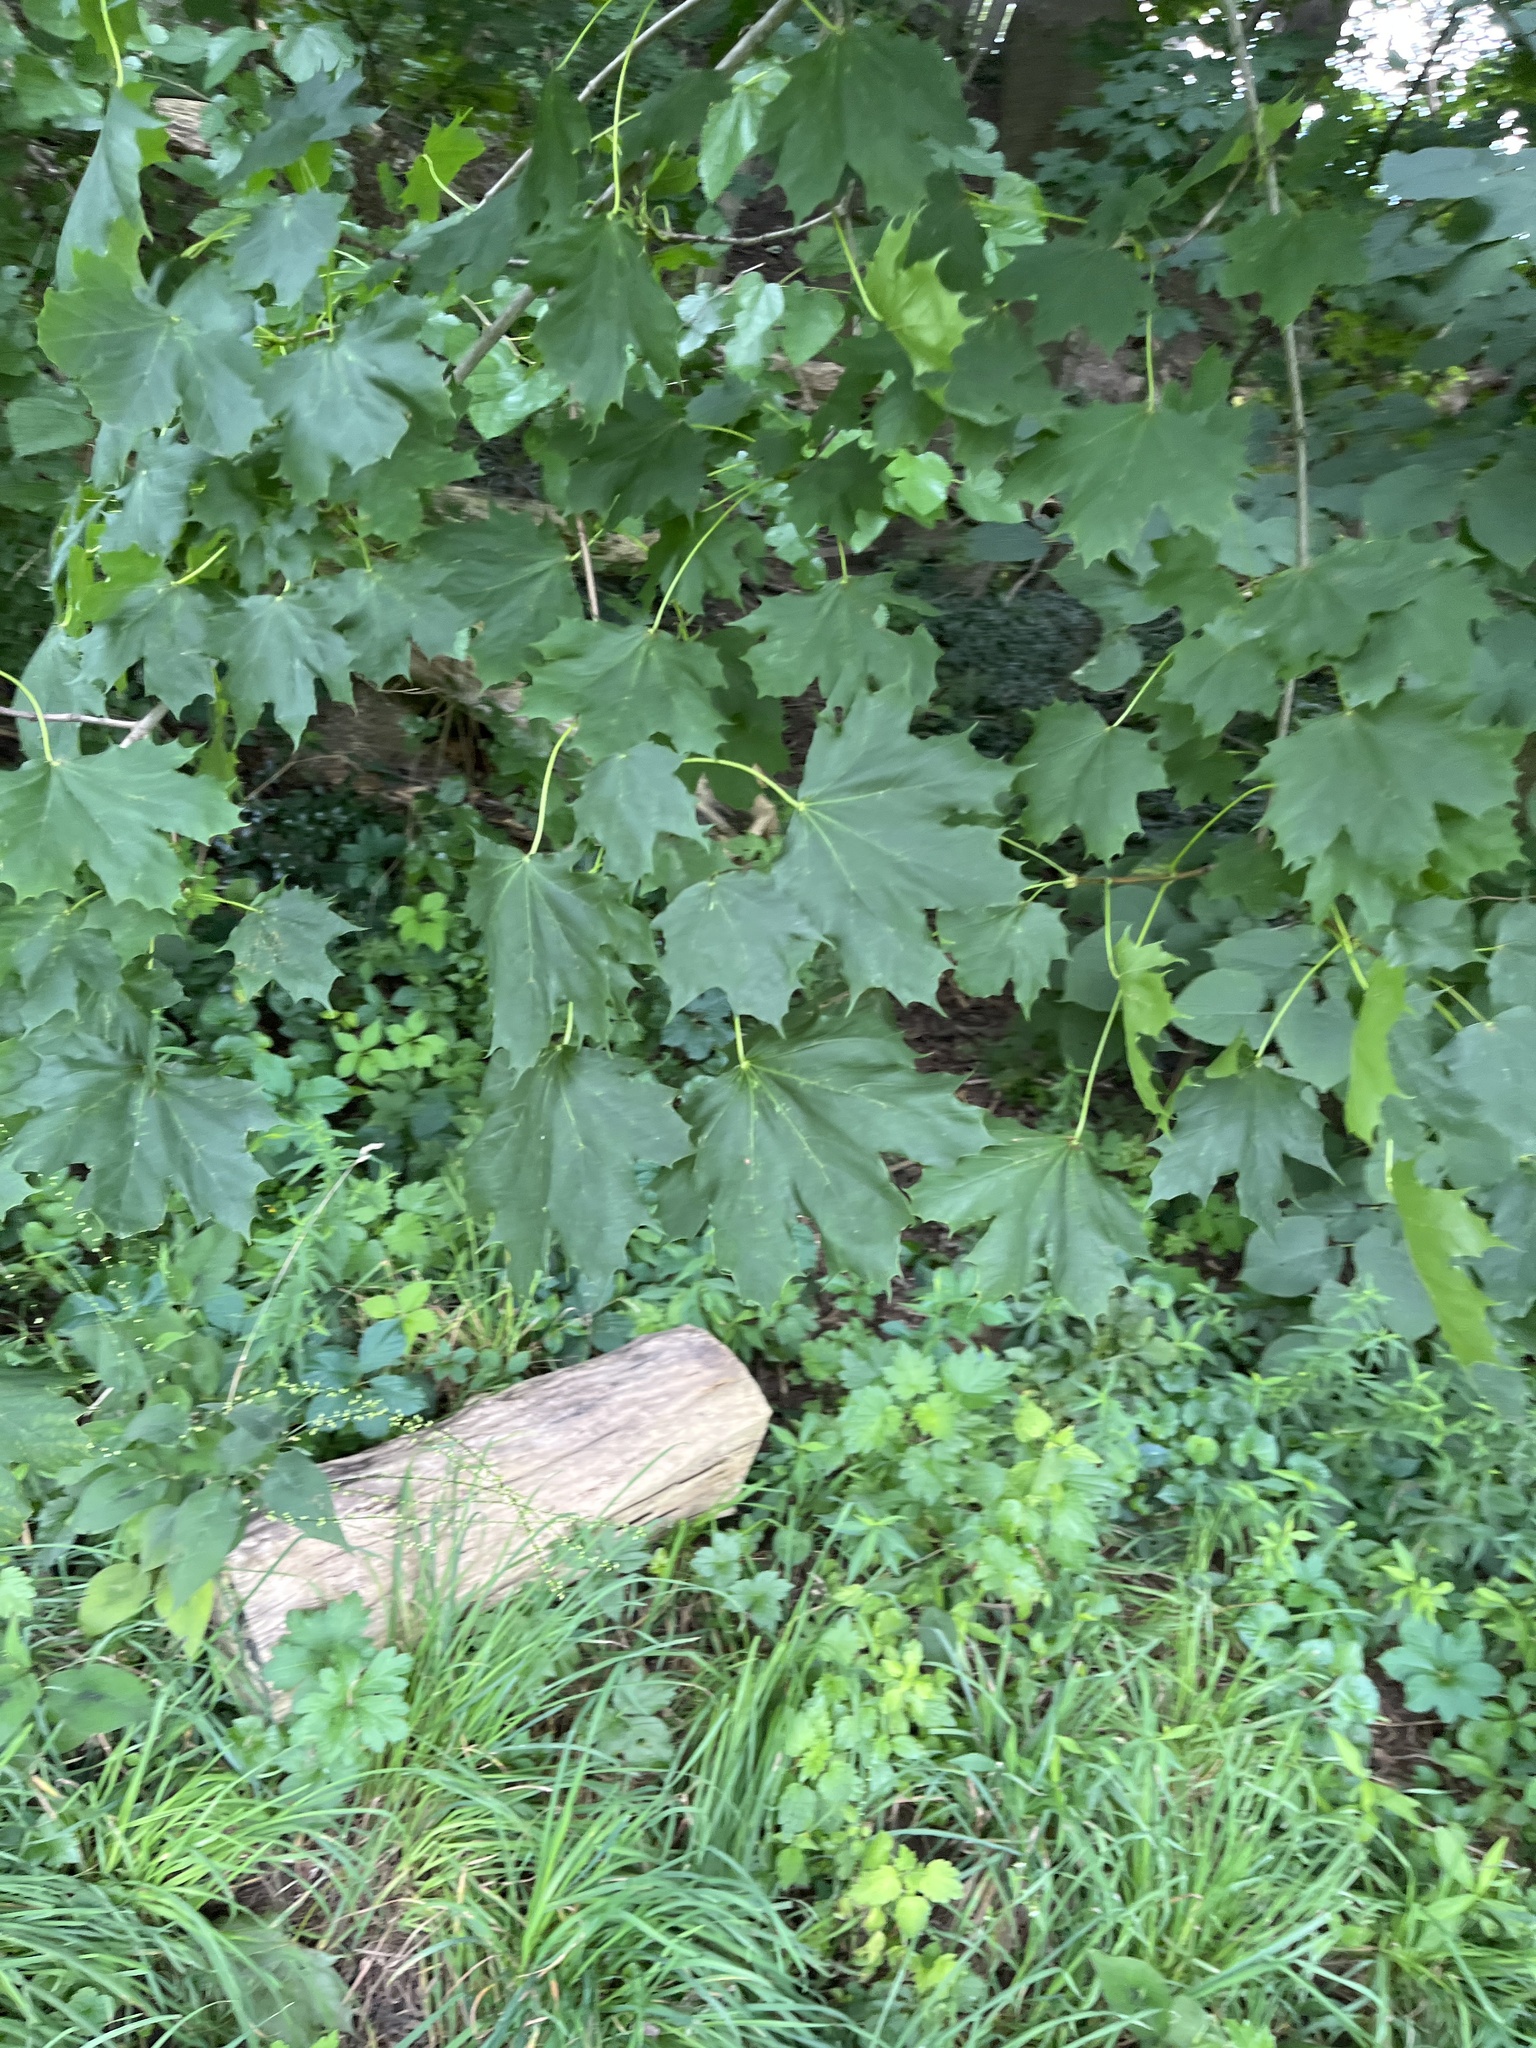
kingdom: Plantae
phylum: Tracheophyta
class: Magnoliopsida
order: Sapindales
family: Sapindaceae
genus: Acer
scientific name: Acer platanoides
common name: Norway maple
